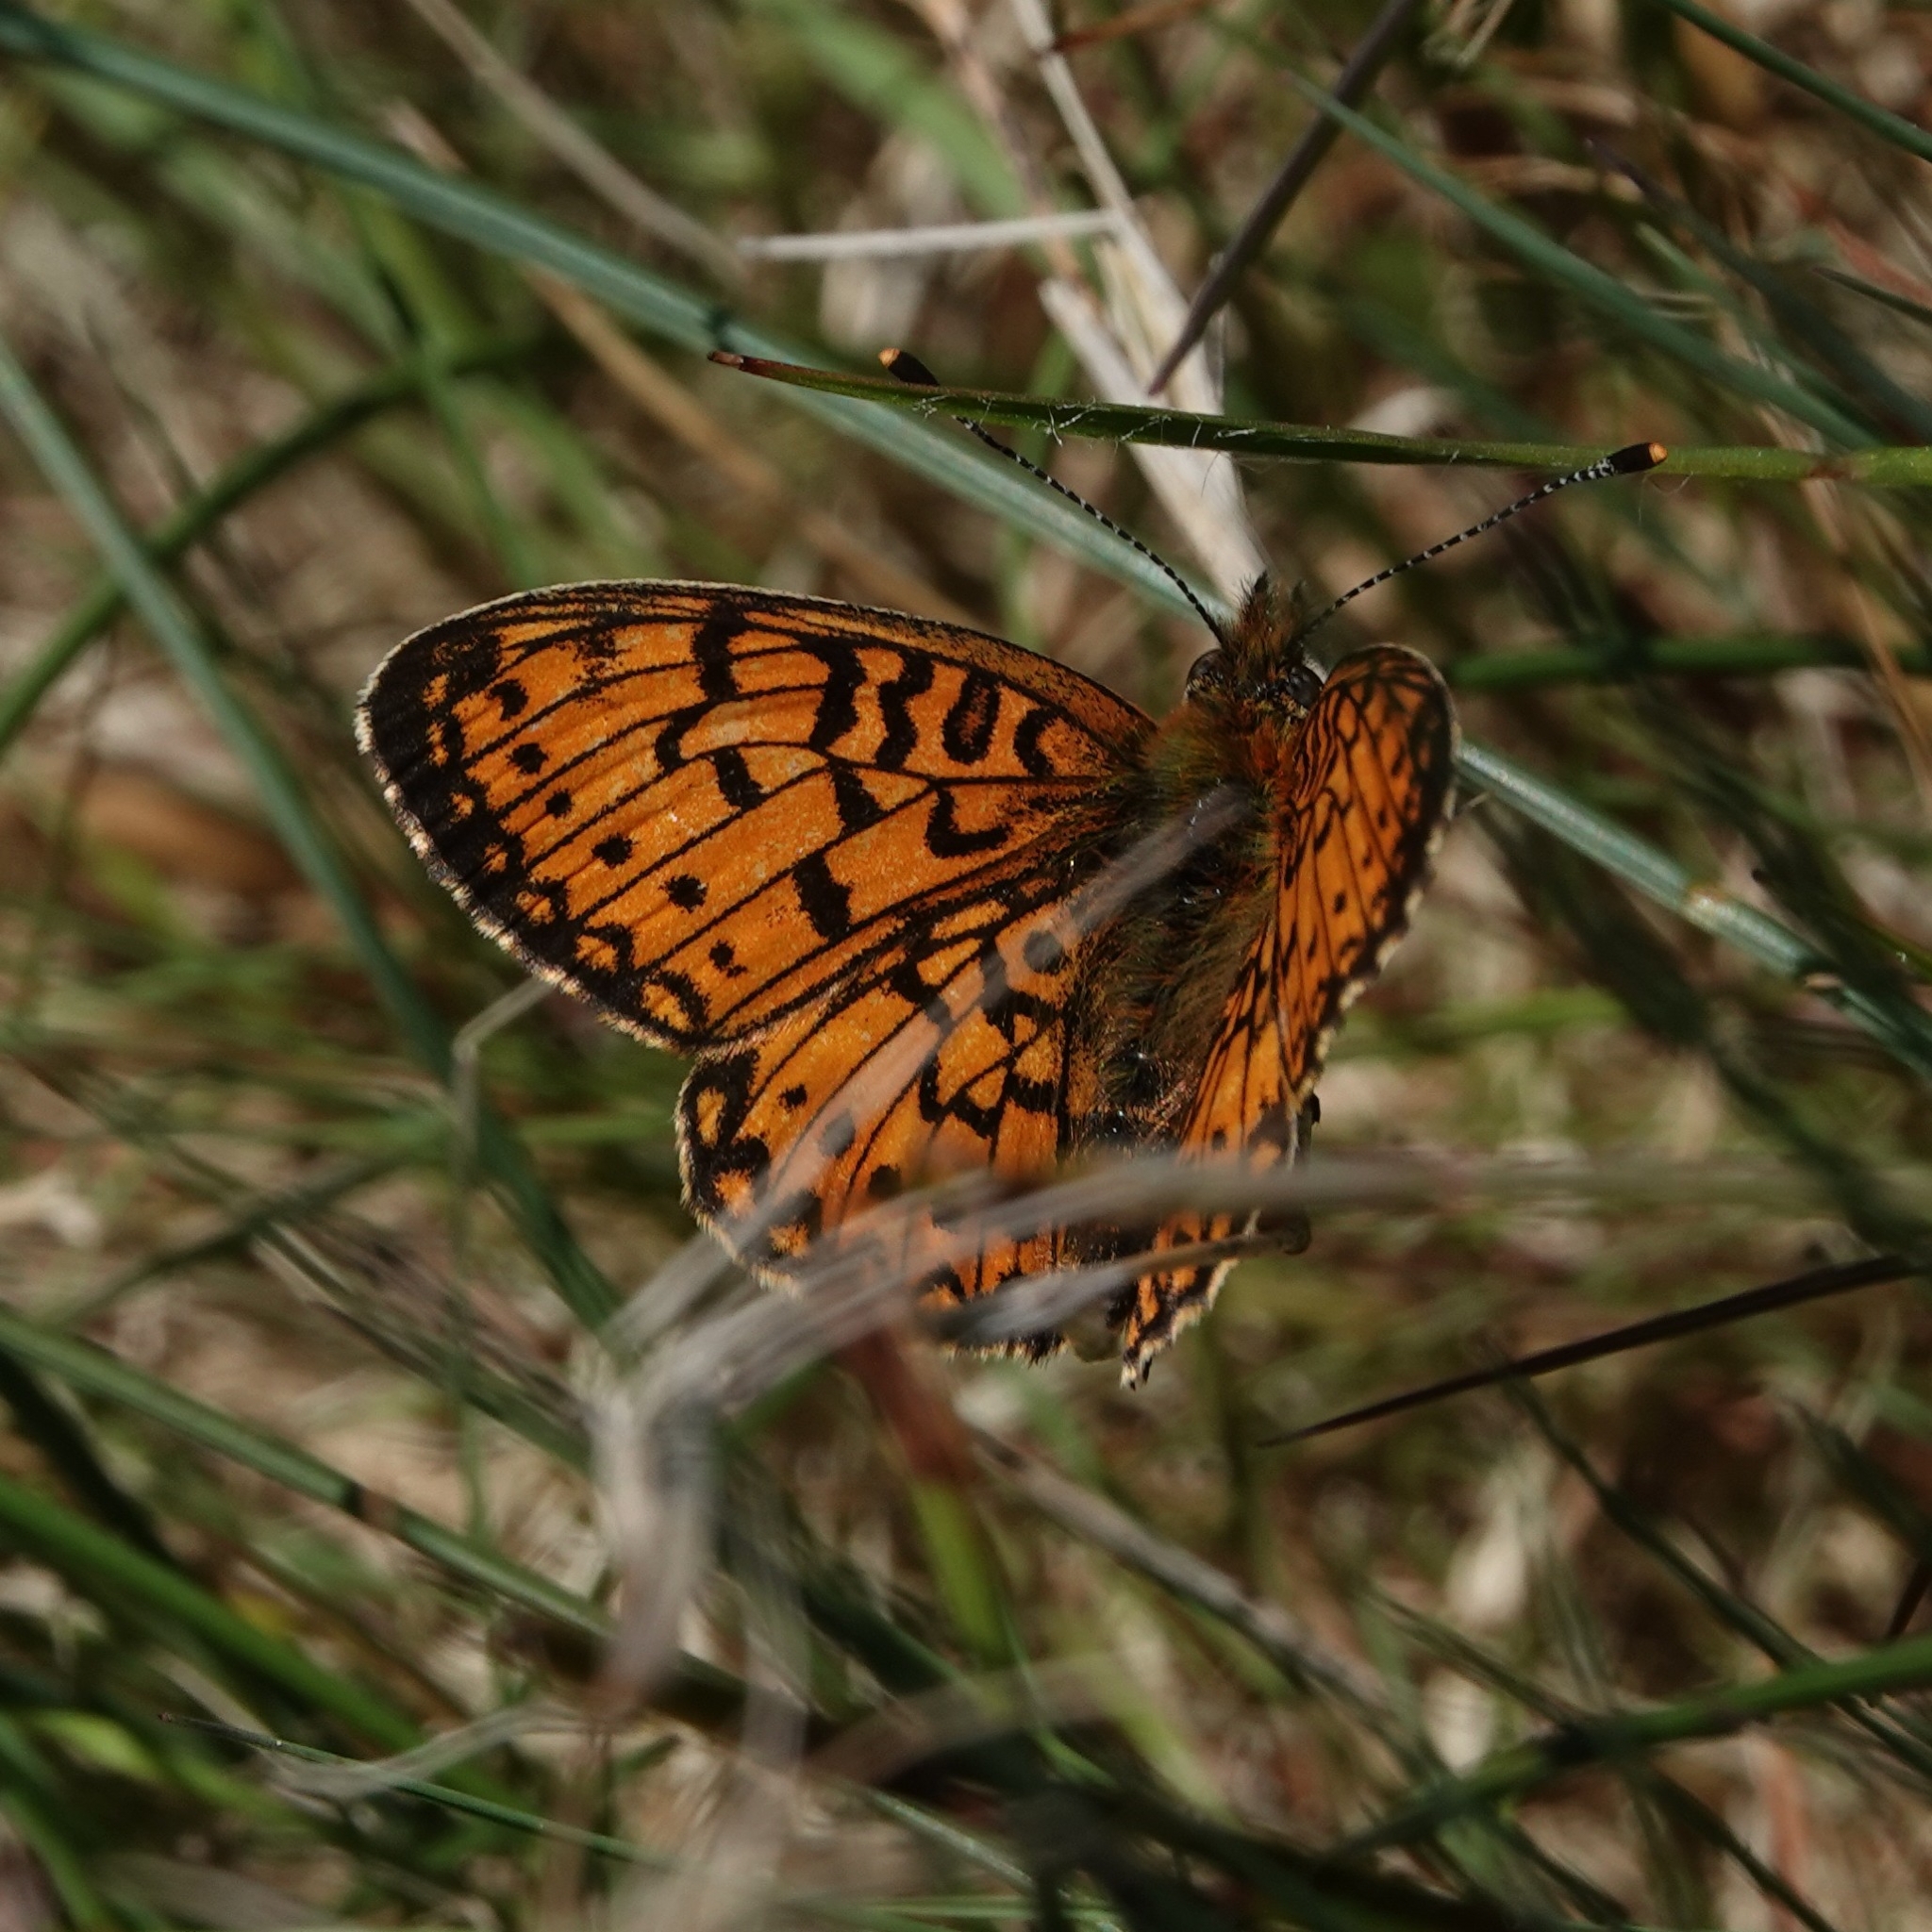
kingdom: Animalia
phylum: Arthropoda
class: Insecta
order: Lepidoptera
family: Nymphalidae
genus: Boloria
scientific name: Boloria selene
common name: Small pearl-bordered fritillary
